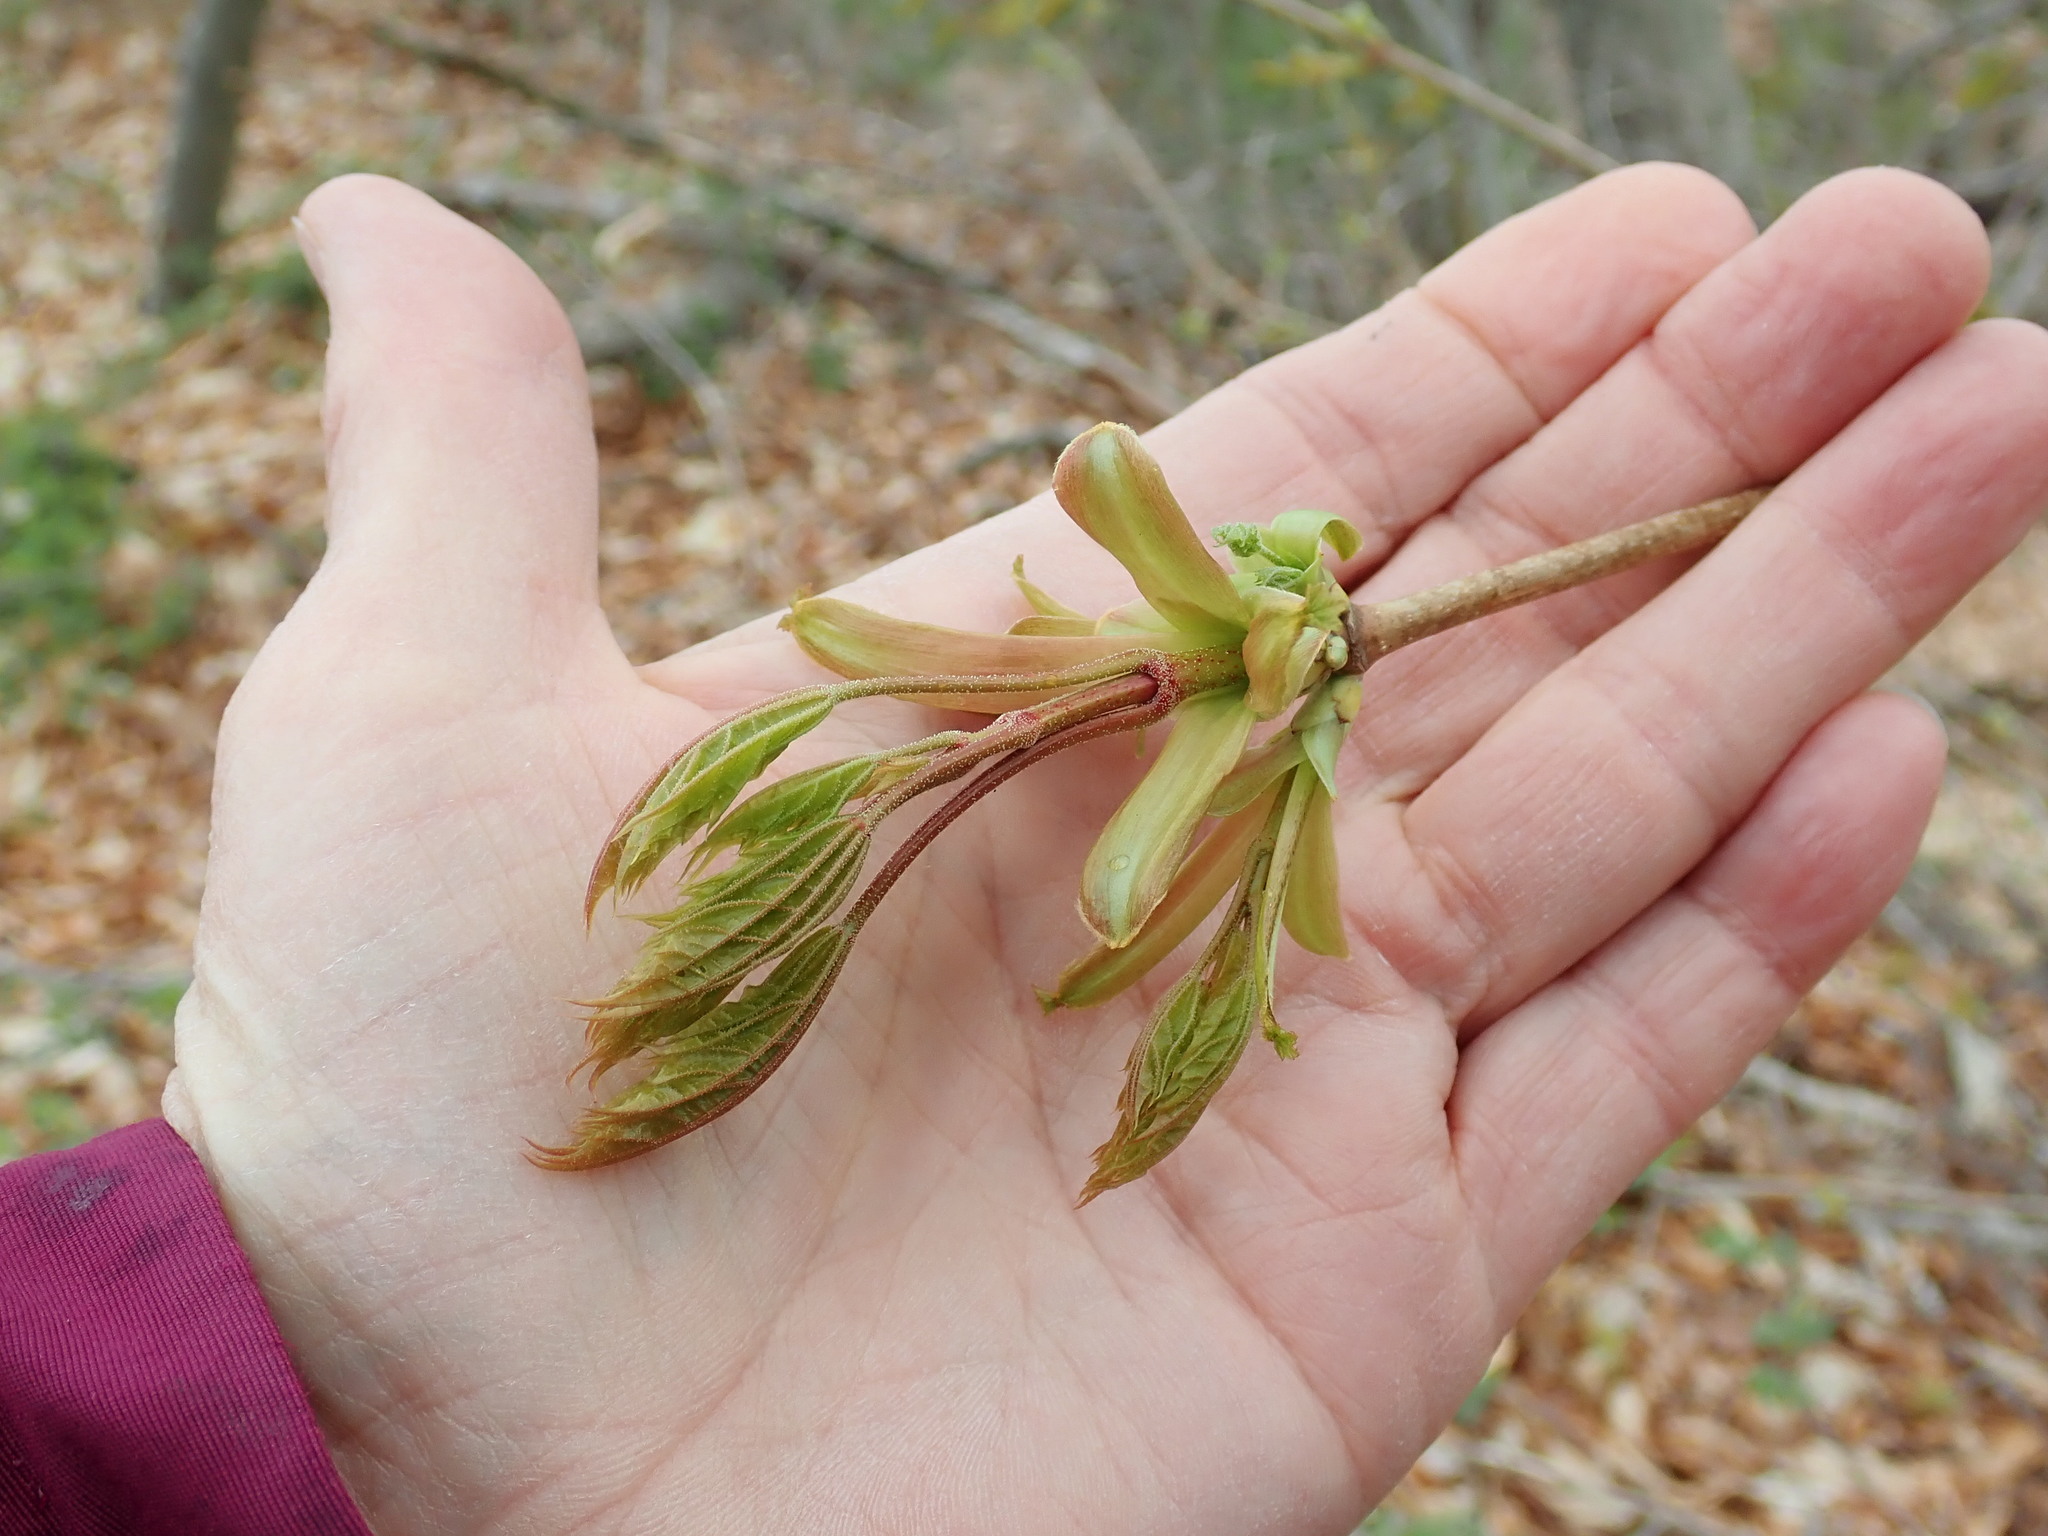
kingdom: Plantae
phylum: Tracheophyta
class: Magnoliopsida
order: Sapindales
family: Sapindaceae
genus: Acer
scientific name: Acer platanoides
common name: Norway maple
